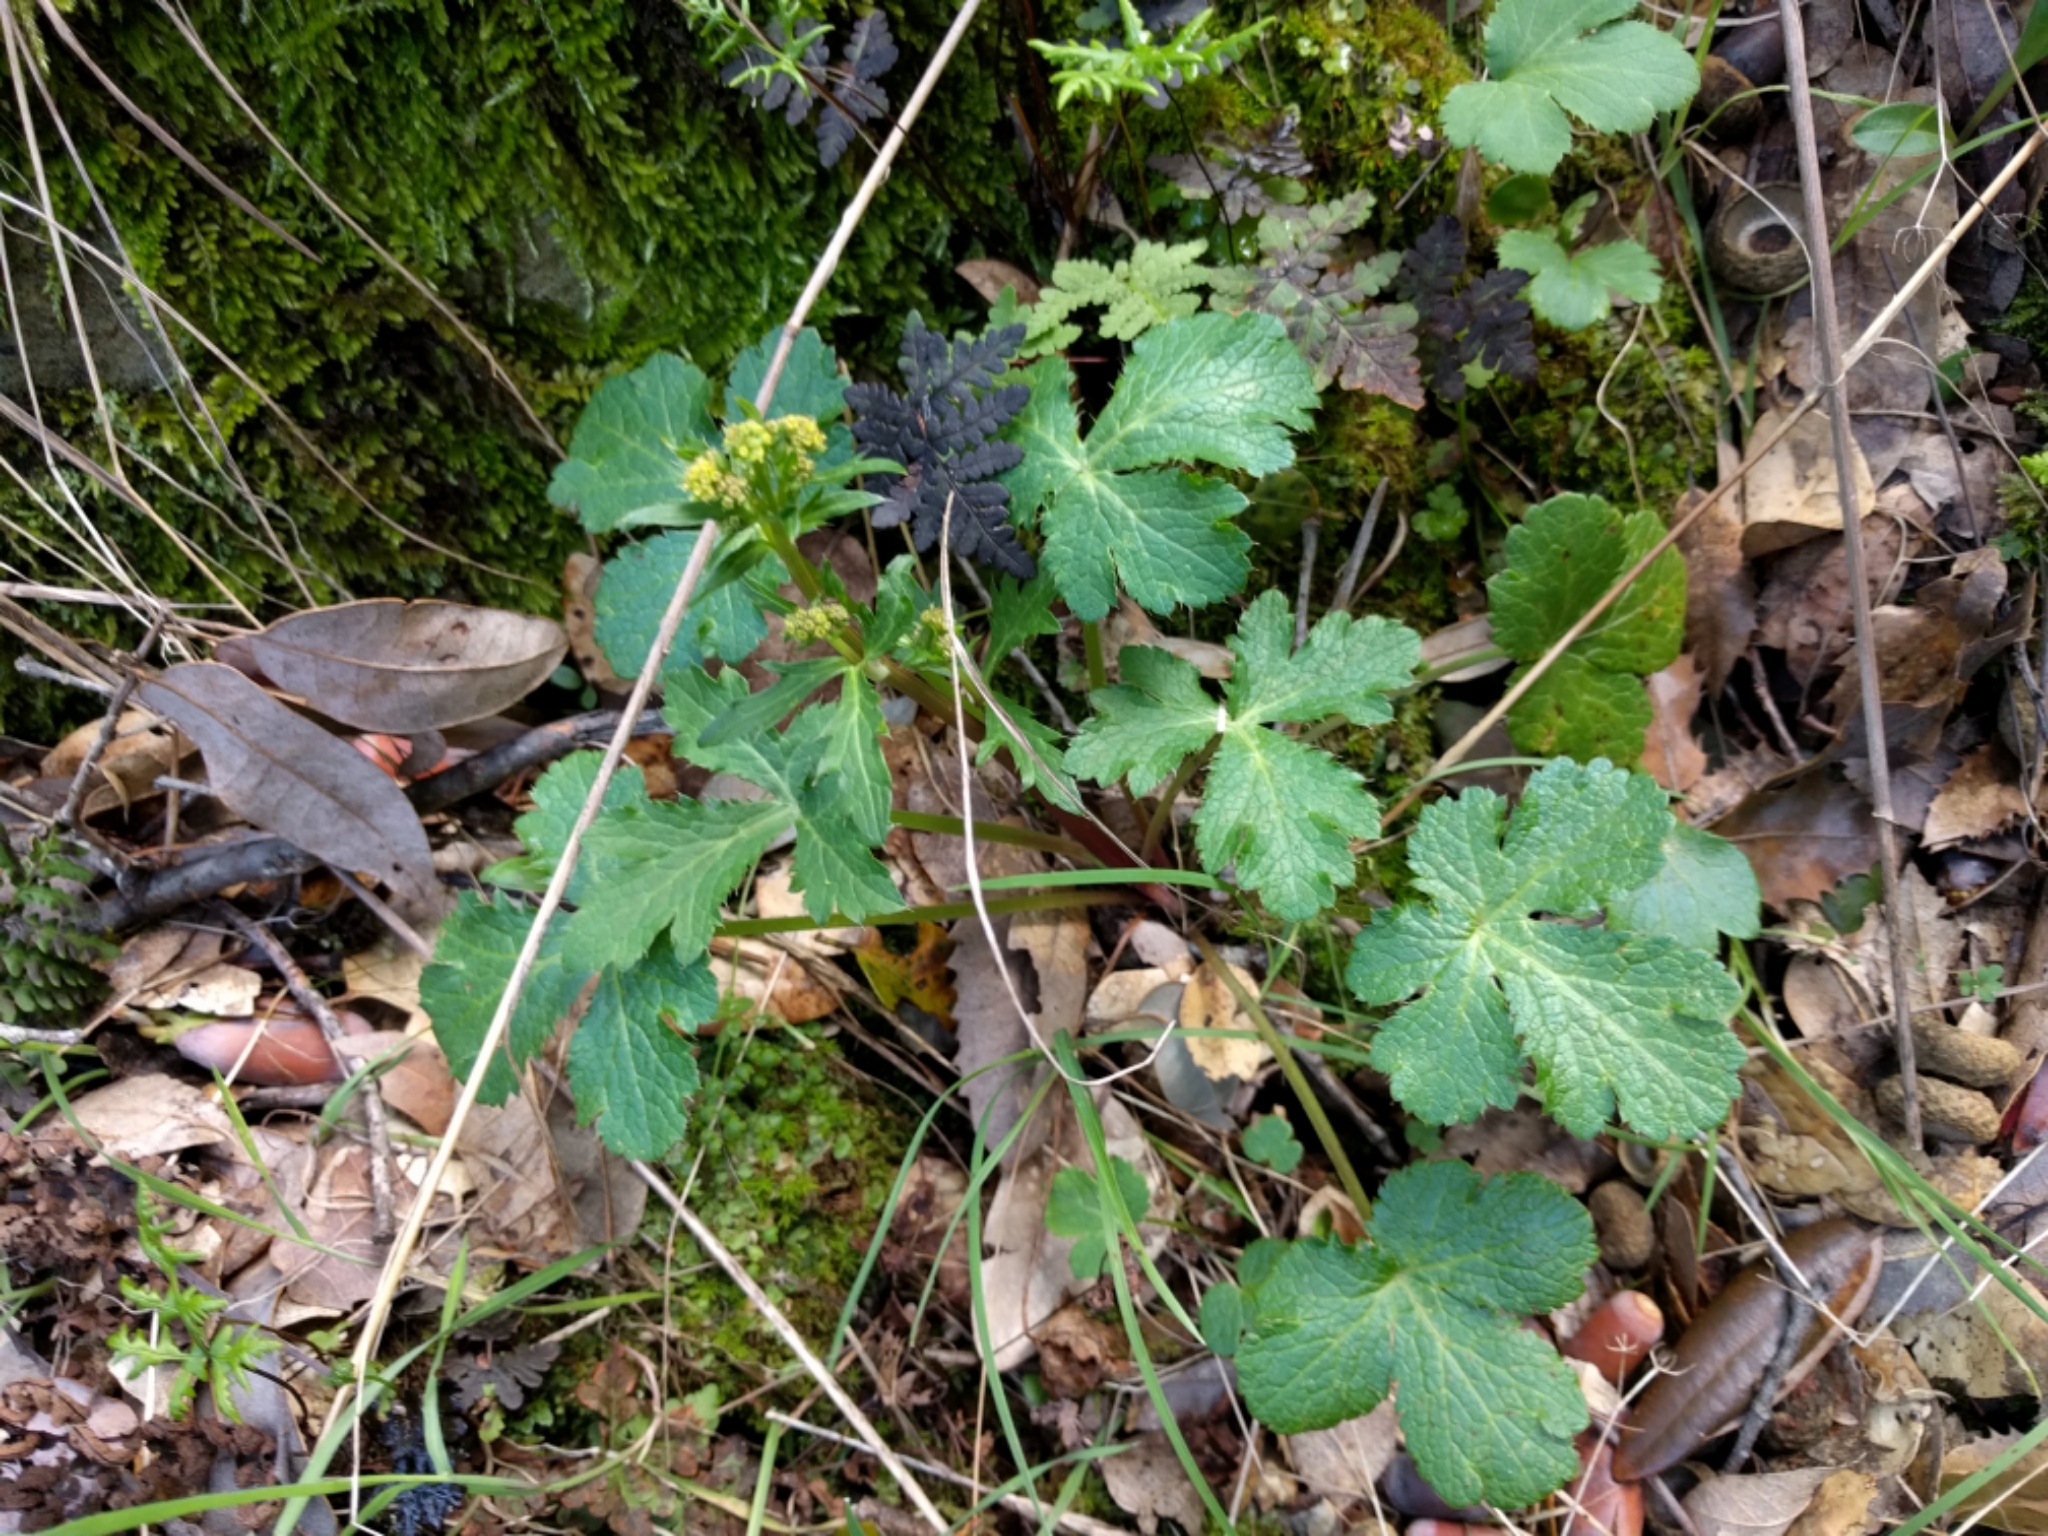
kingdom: Plantae
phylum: Tracheophyta
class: Magnoliopsida
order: Apiales
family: Apiaceae
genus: Sanicula
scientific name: Sanicula crassicaulis
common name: Western snakeroot
